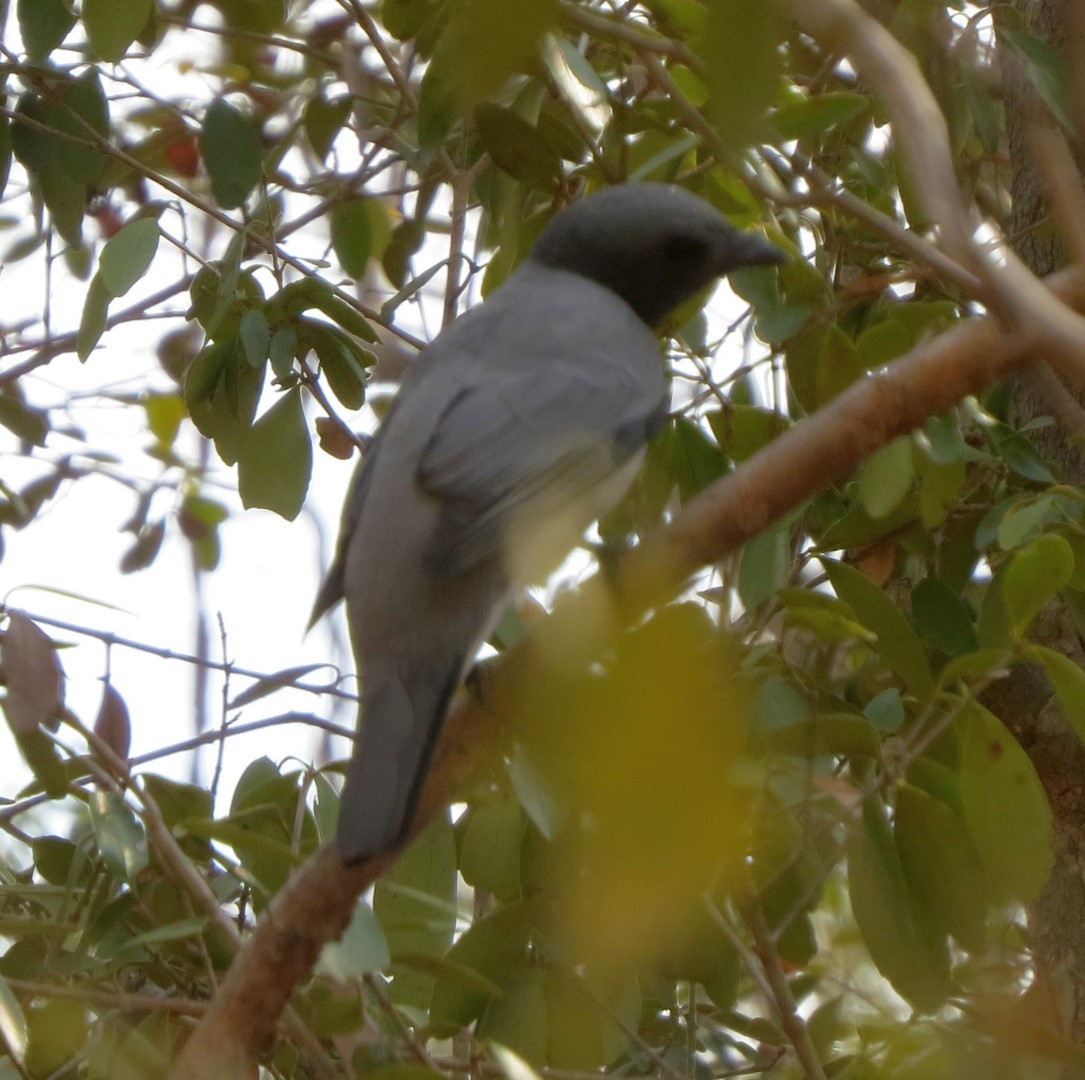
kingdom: Animalia
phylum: Chordata
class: Aves
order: Passeriformes
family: Campephagidae
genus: Coracina
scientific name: Coracina cinerea
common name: Madagascan cuckooshrike
